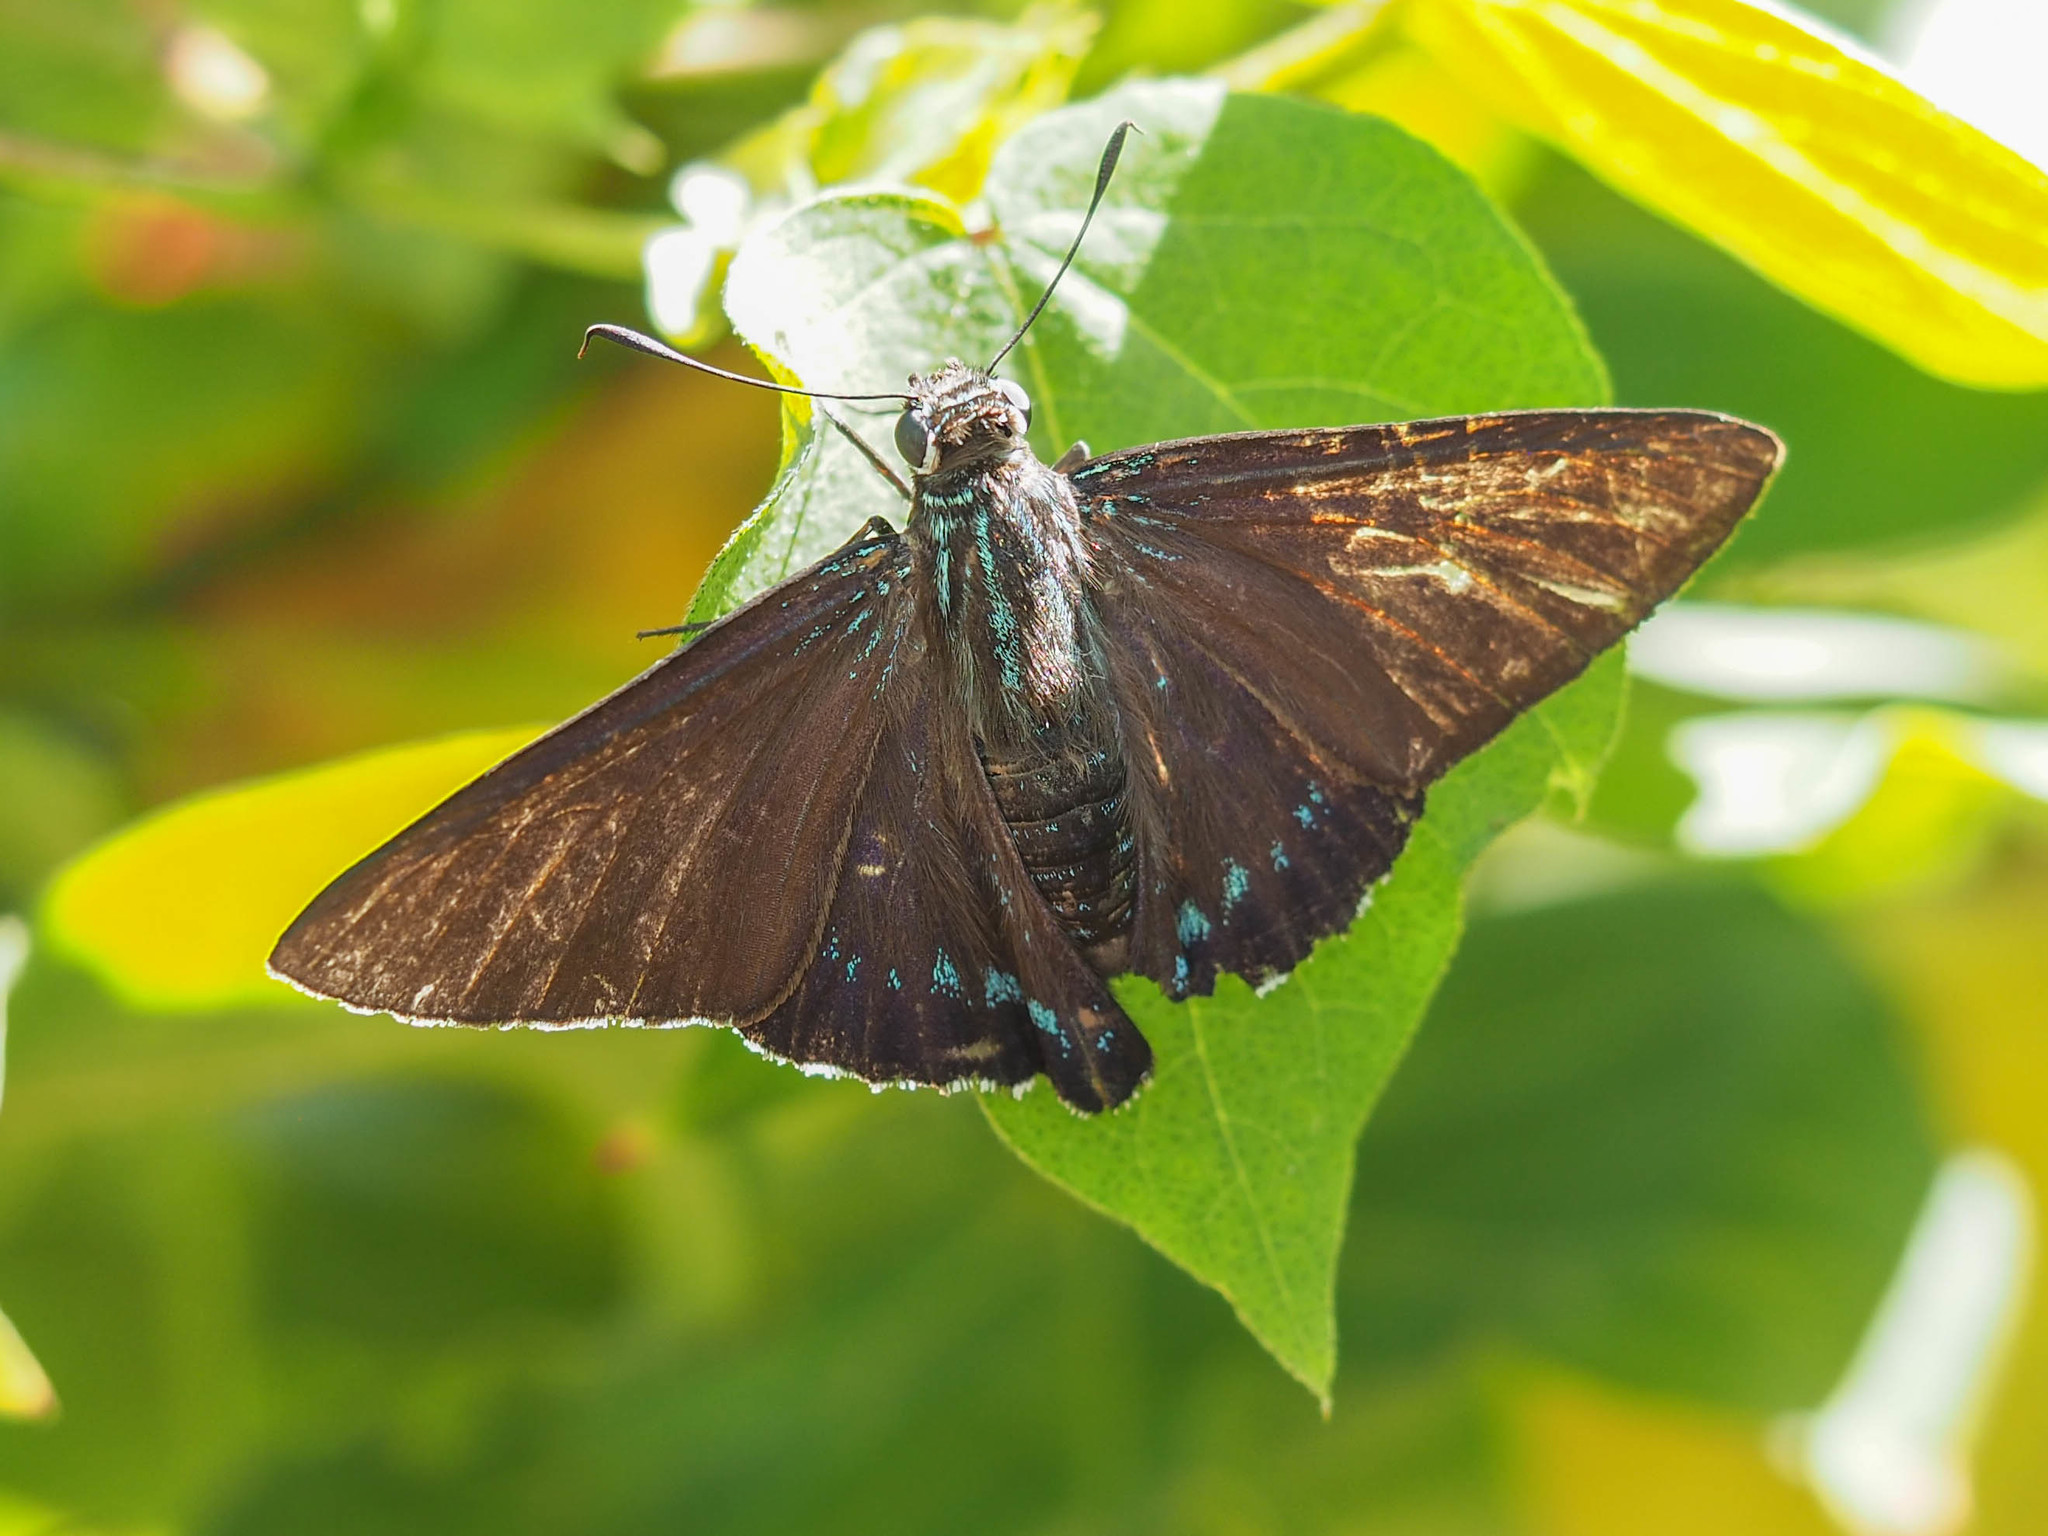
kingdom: Animalia
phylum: Arthropoda
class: Insecta
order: Lepidoptera
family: Hesperiidae
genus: Phocides
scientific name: Phocides pigmalion
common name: Mangrove skipper
